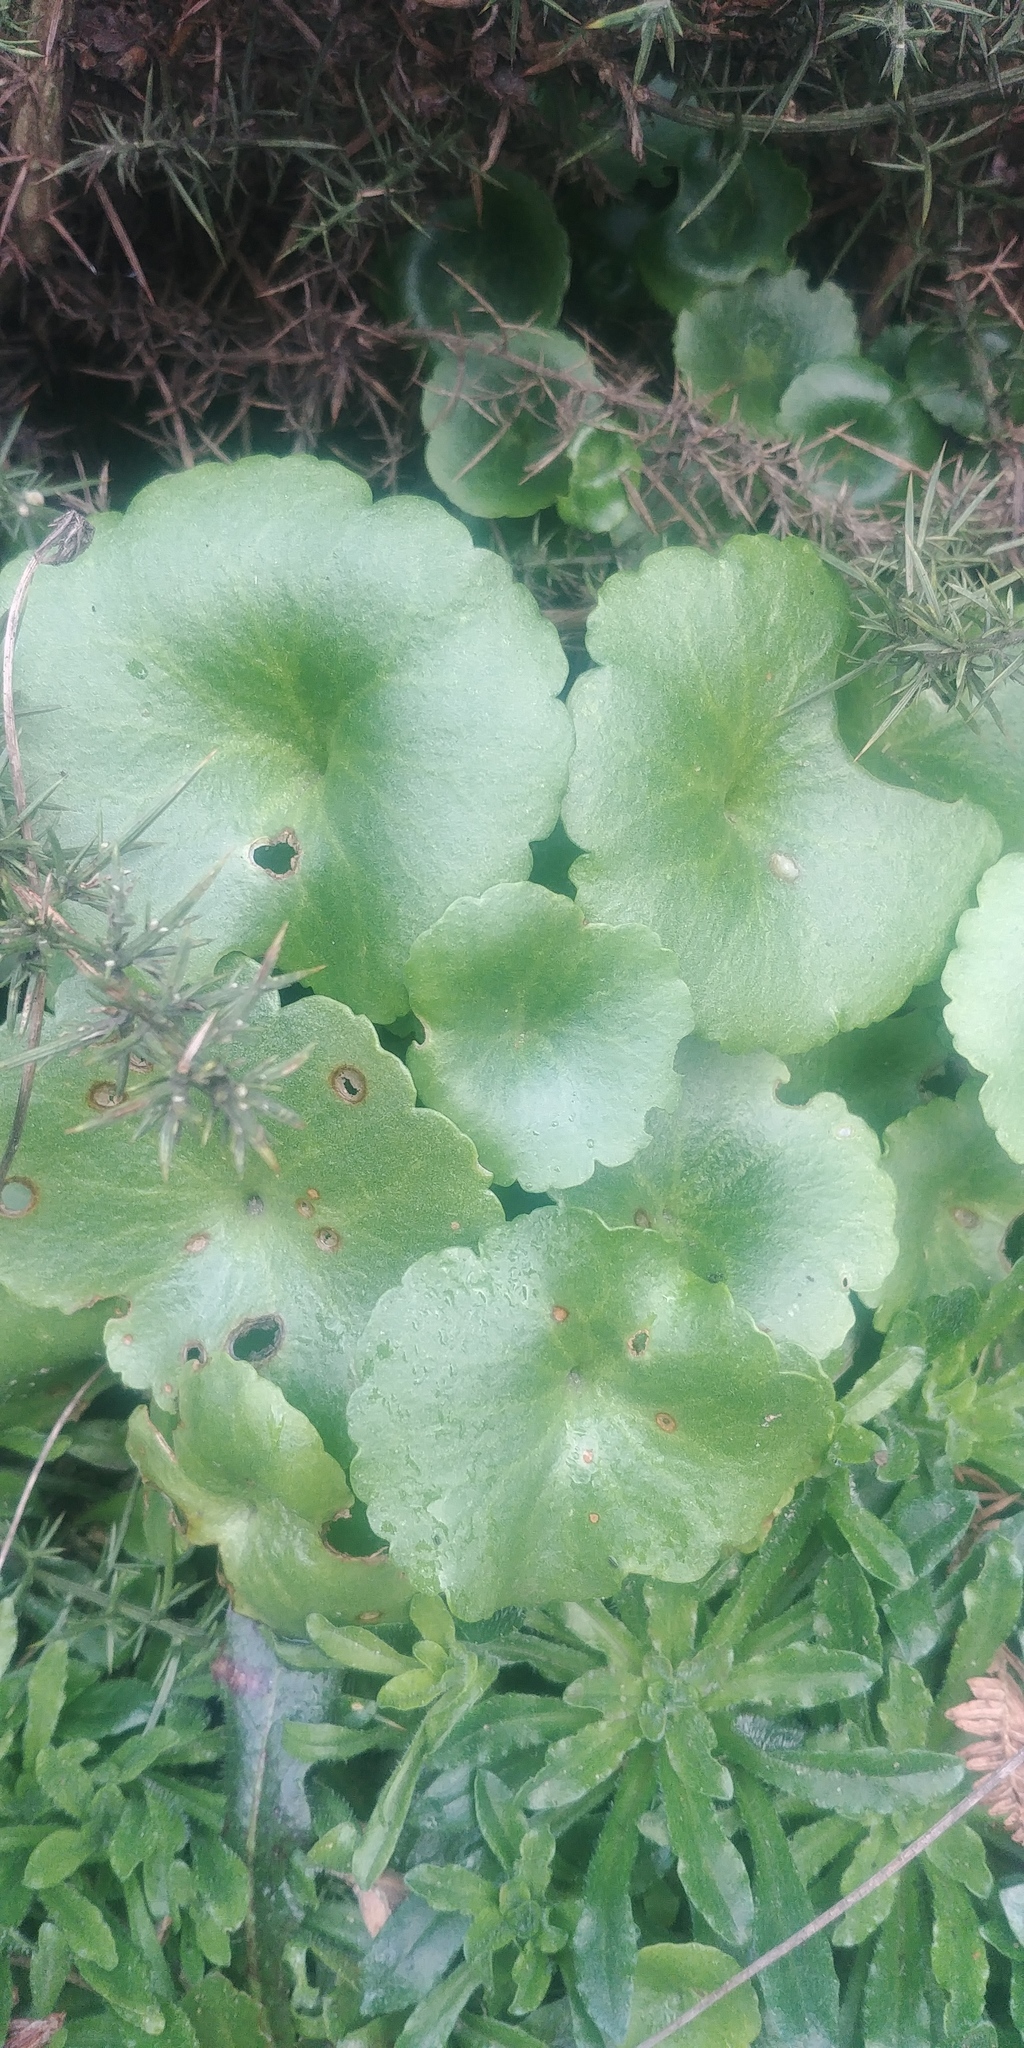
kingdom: Plantae
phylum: Tracheophyta
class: Magnoliopsida
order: Saxifragales
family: Crassulaceae
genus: Umbilicus
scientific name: Umbilicus rupestris
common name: Navelwort
